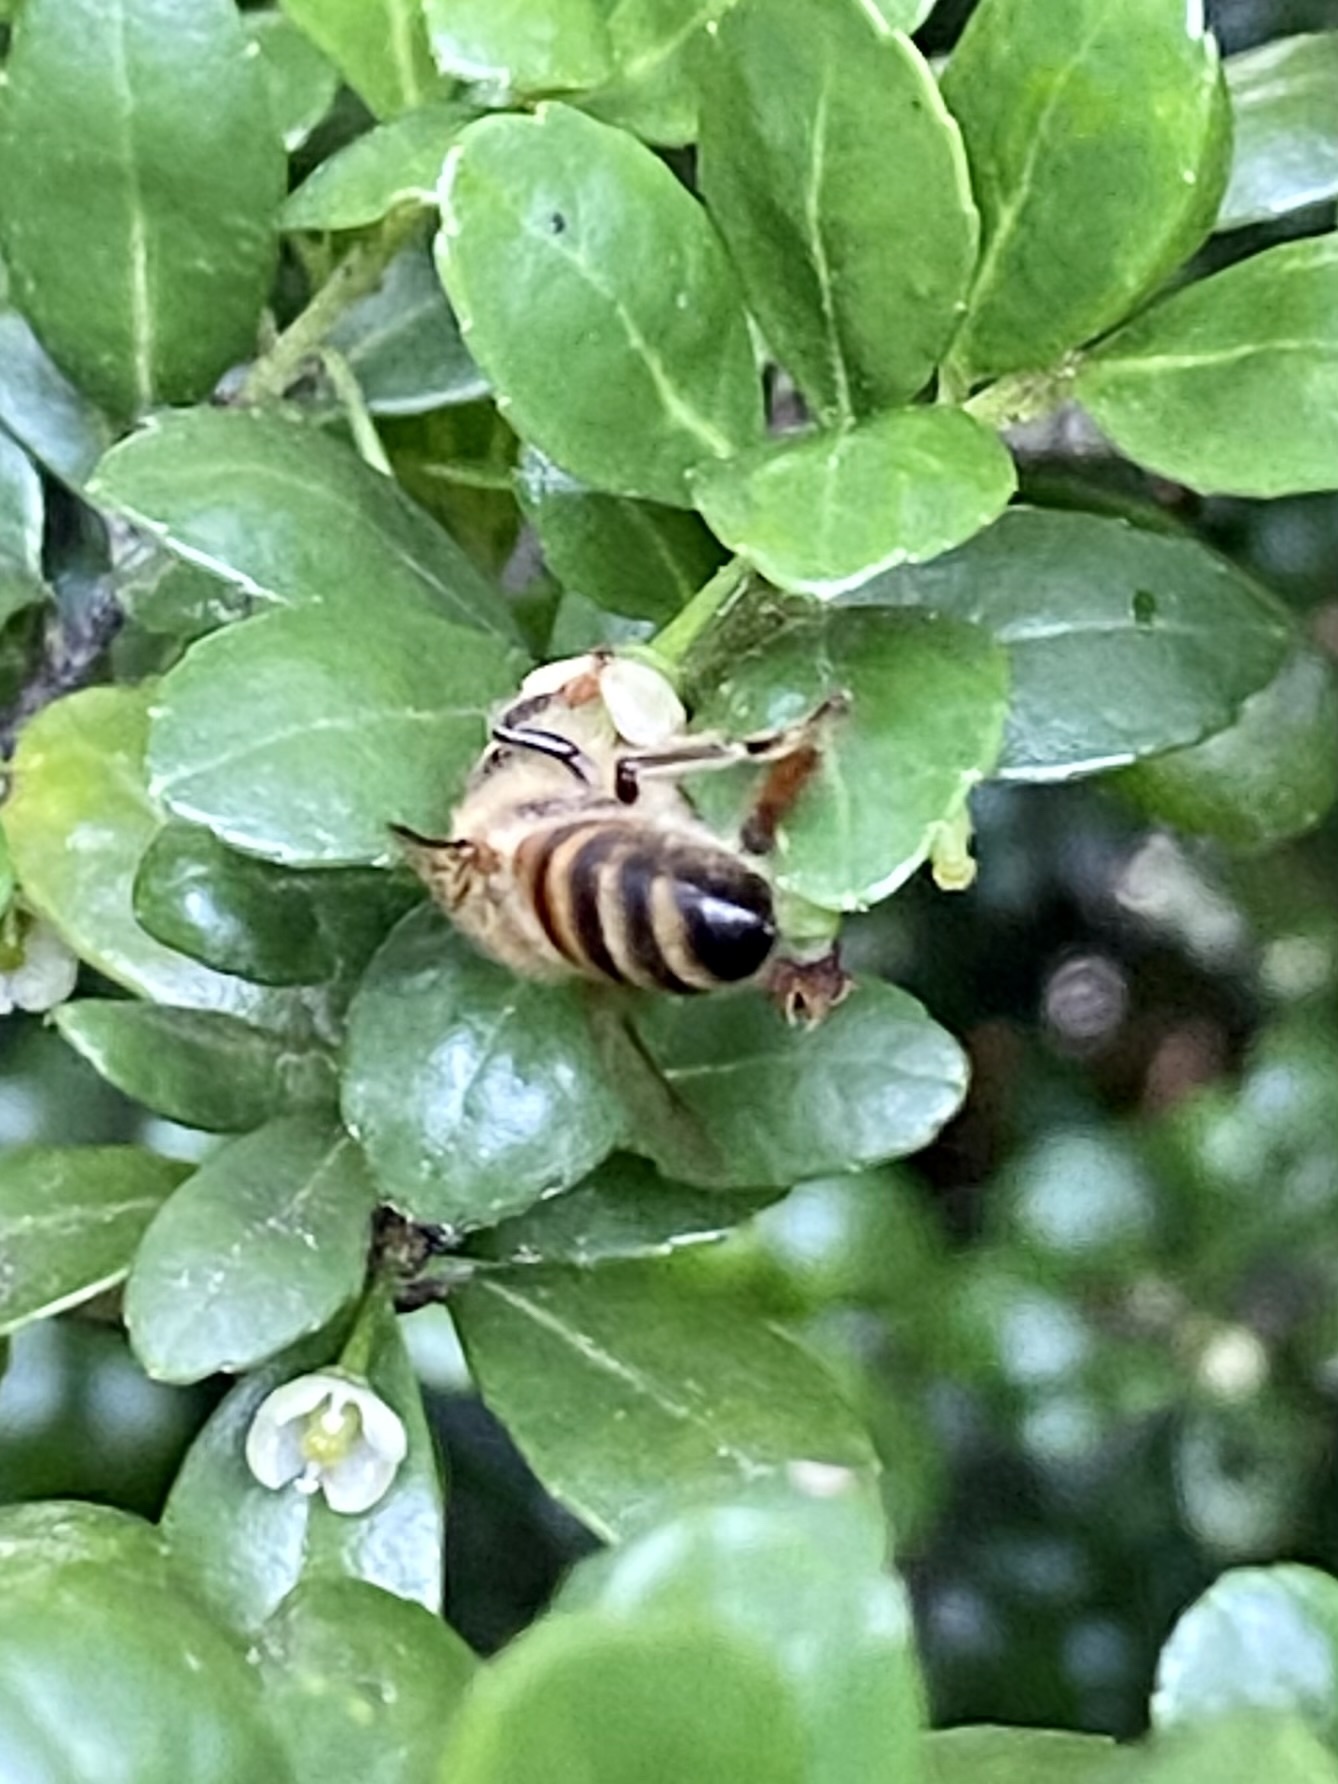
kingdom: Animalia
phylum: Arthropoda
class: Insecta
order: Hymenoptera
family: Apidae
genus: Apis
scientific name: Apis mellifera
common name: Honey bee
